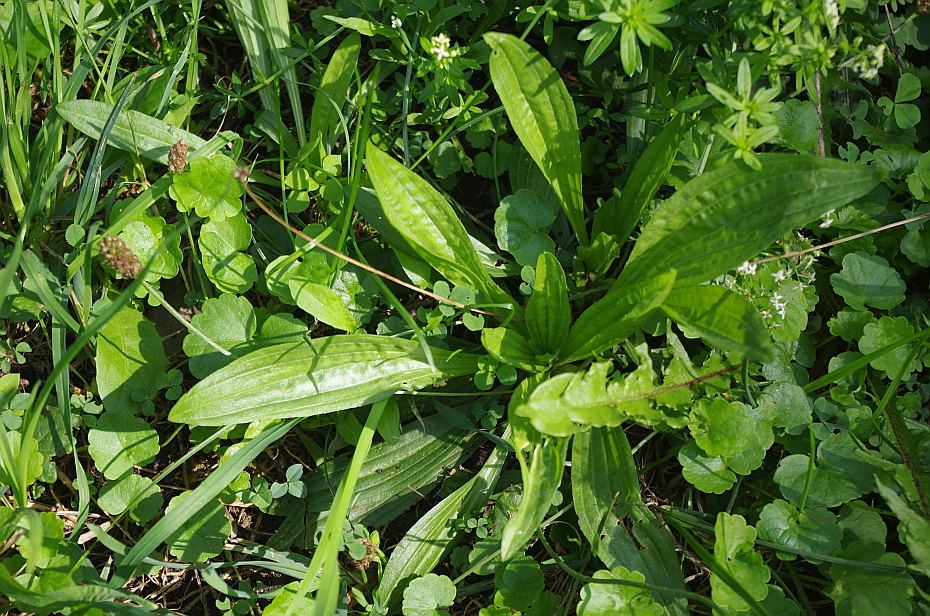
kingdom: Plantae
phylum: Tracheophyta
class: Magnoliopsida
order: Lamiales
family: Plantaginaceae
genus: Plantago
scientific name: Plantago lanceolata
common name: Ribwort plantain
